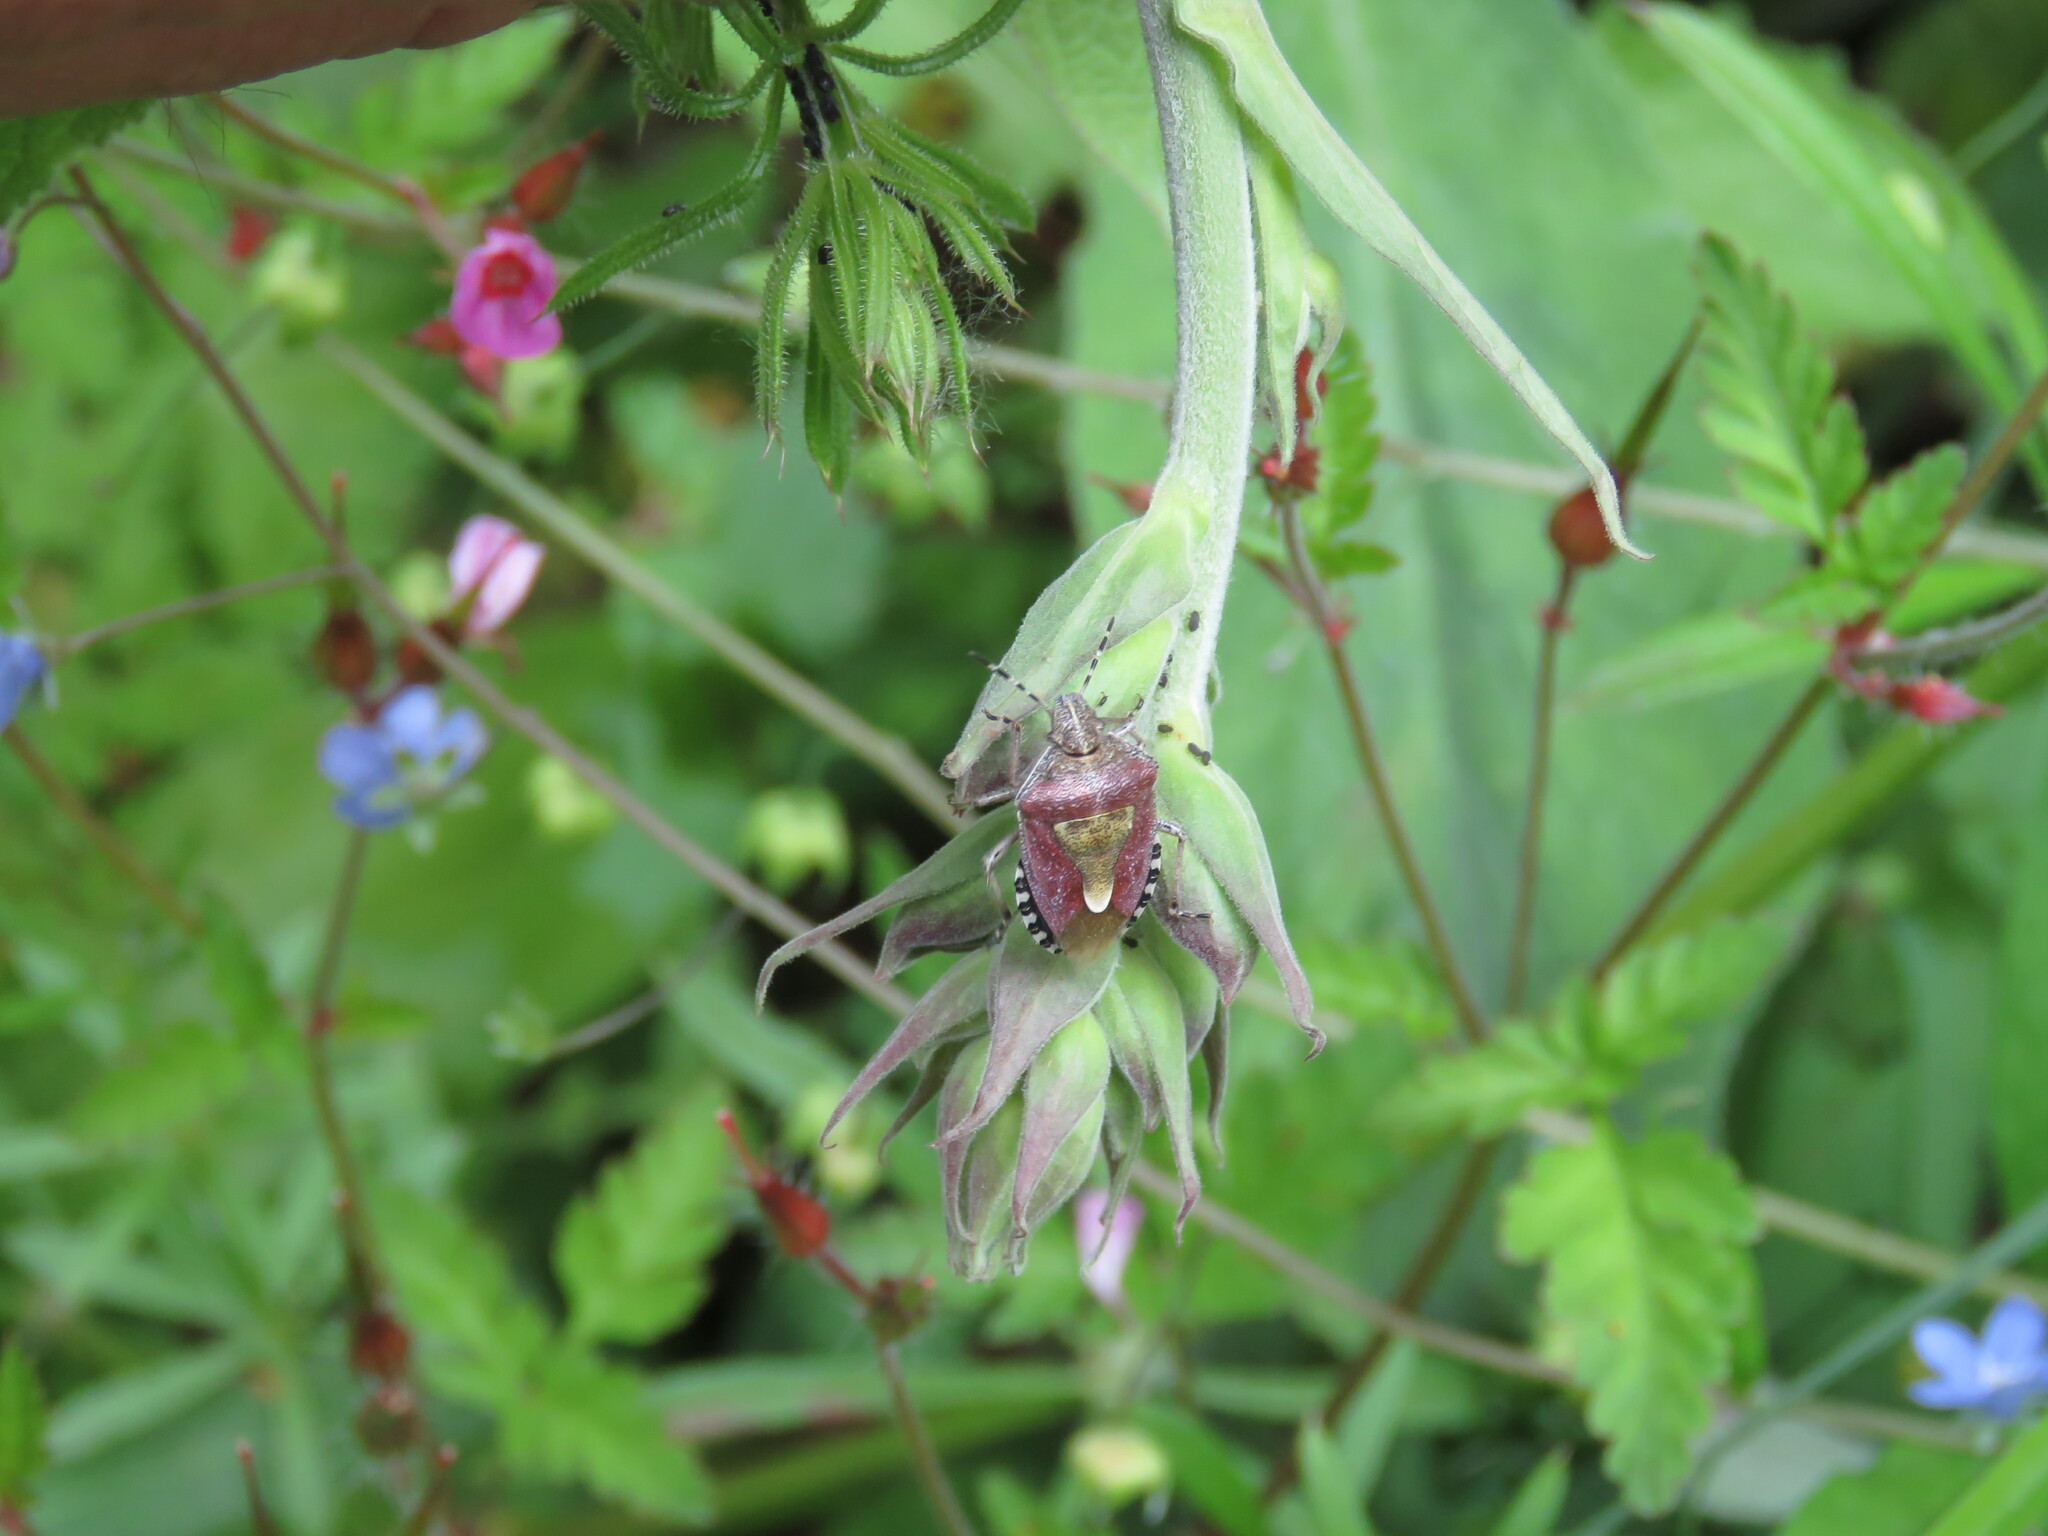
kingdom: Animalia
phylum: Arthropoda
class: Insecta
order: Hemiptera
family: Pentatomidae
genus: Dolycoris
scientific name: Dolycoris baccarum
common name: Sloe bug
